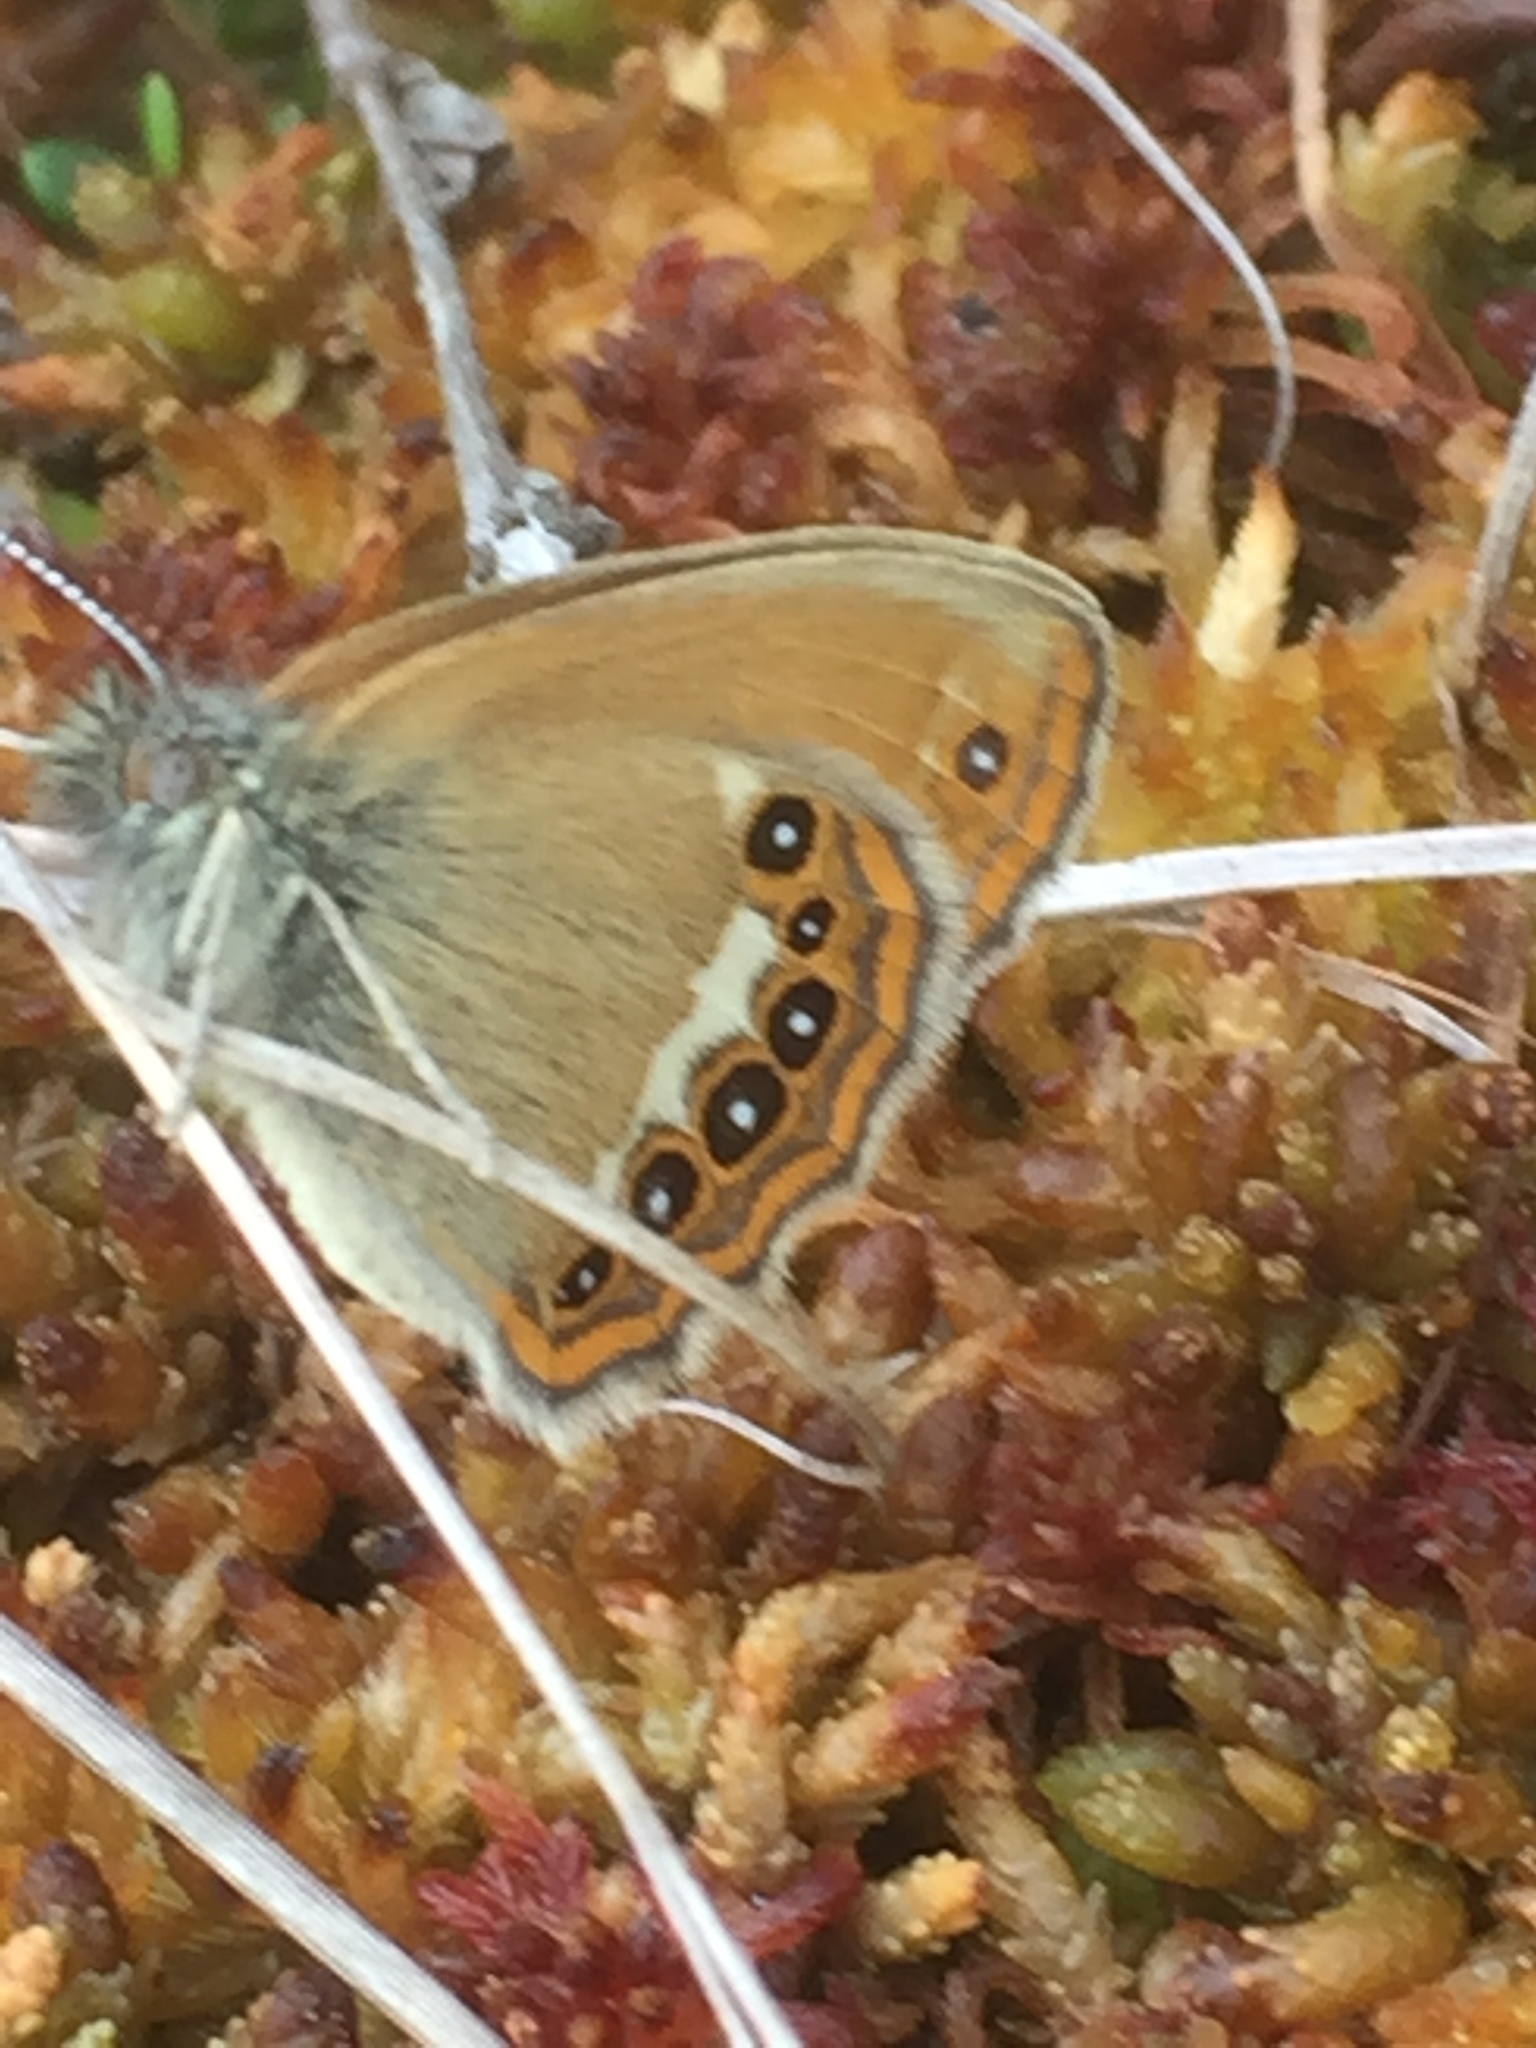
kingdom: Animalia
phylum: Arthropoda
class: Insecta
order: Lepidoptera
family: Nymphalidae
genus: Coenonympha
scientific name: Coenonympha hero
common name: Scarce heath
